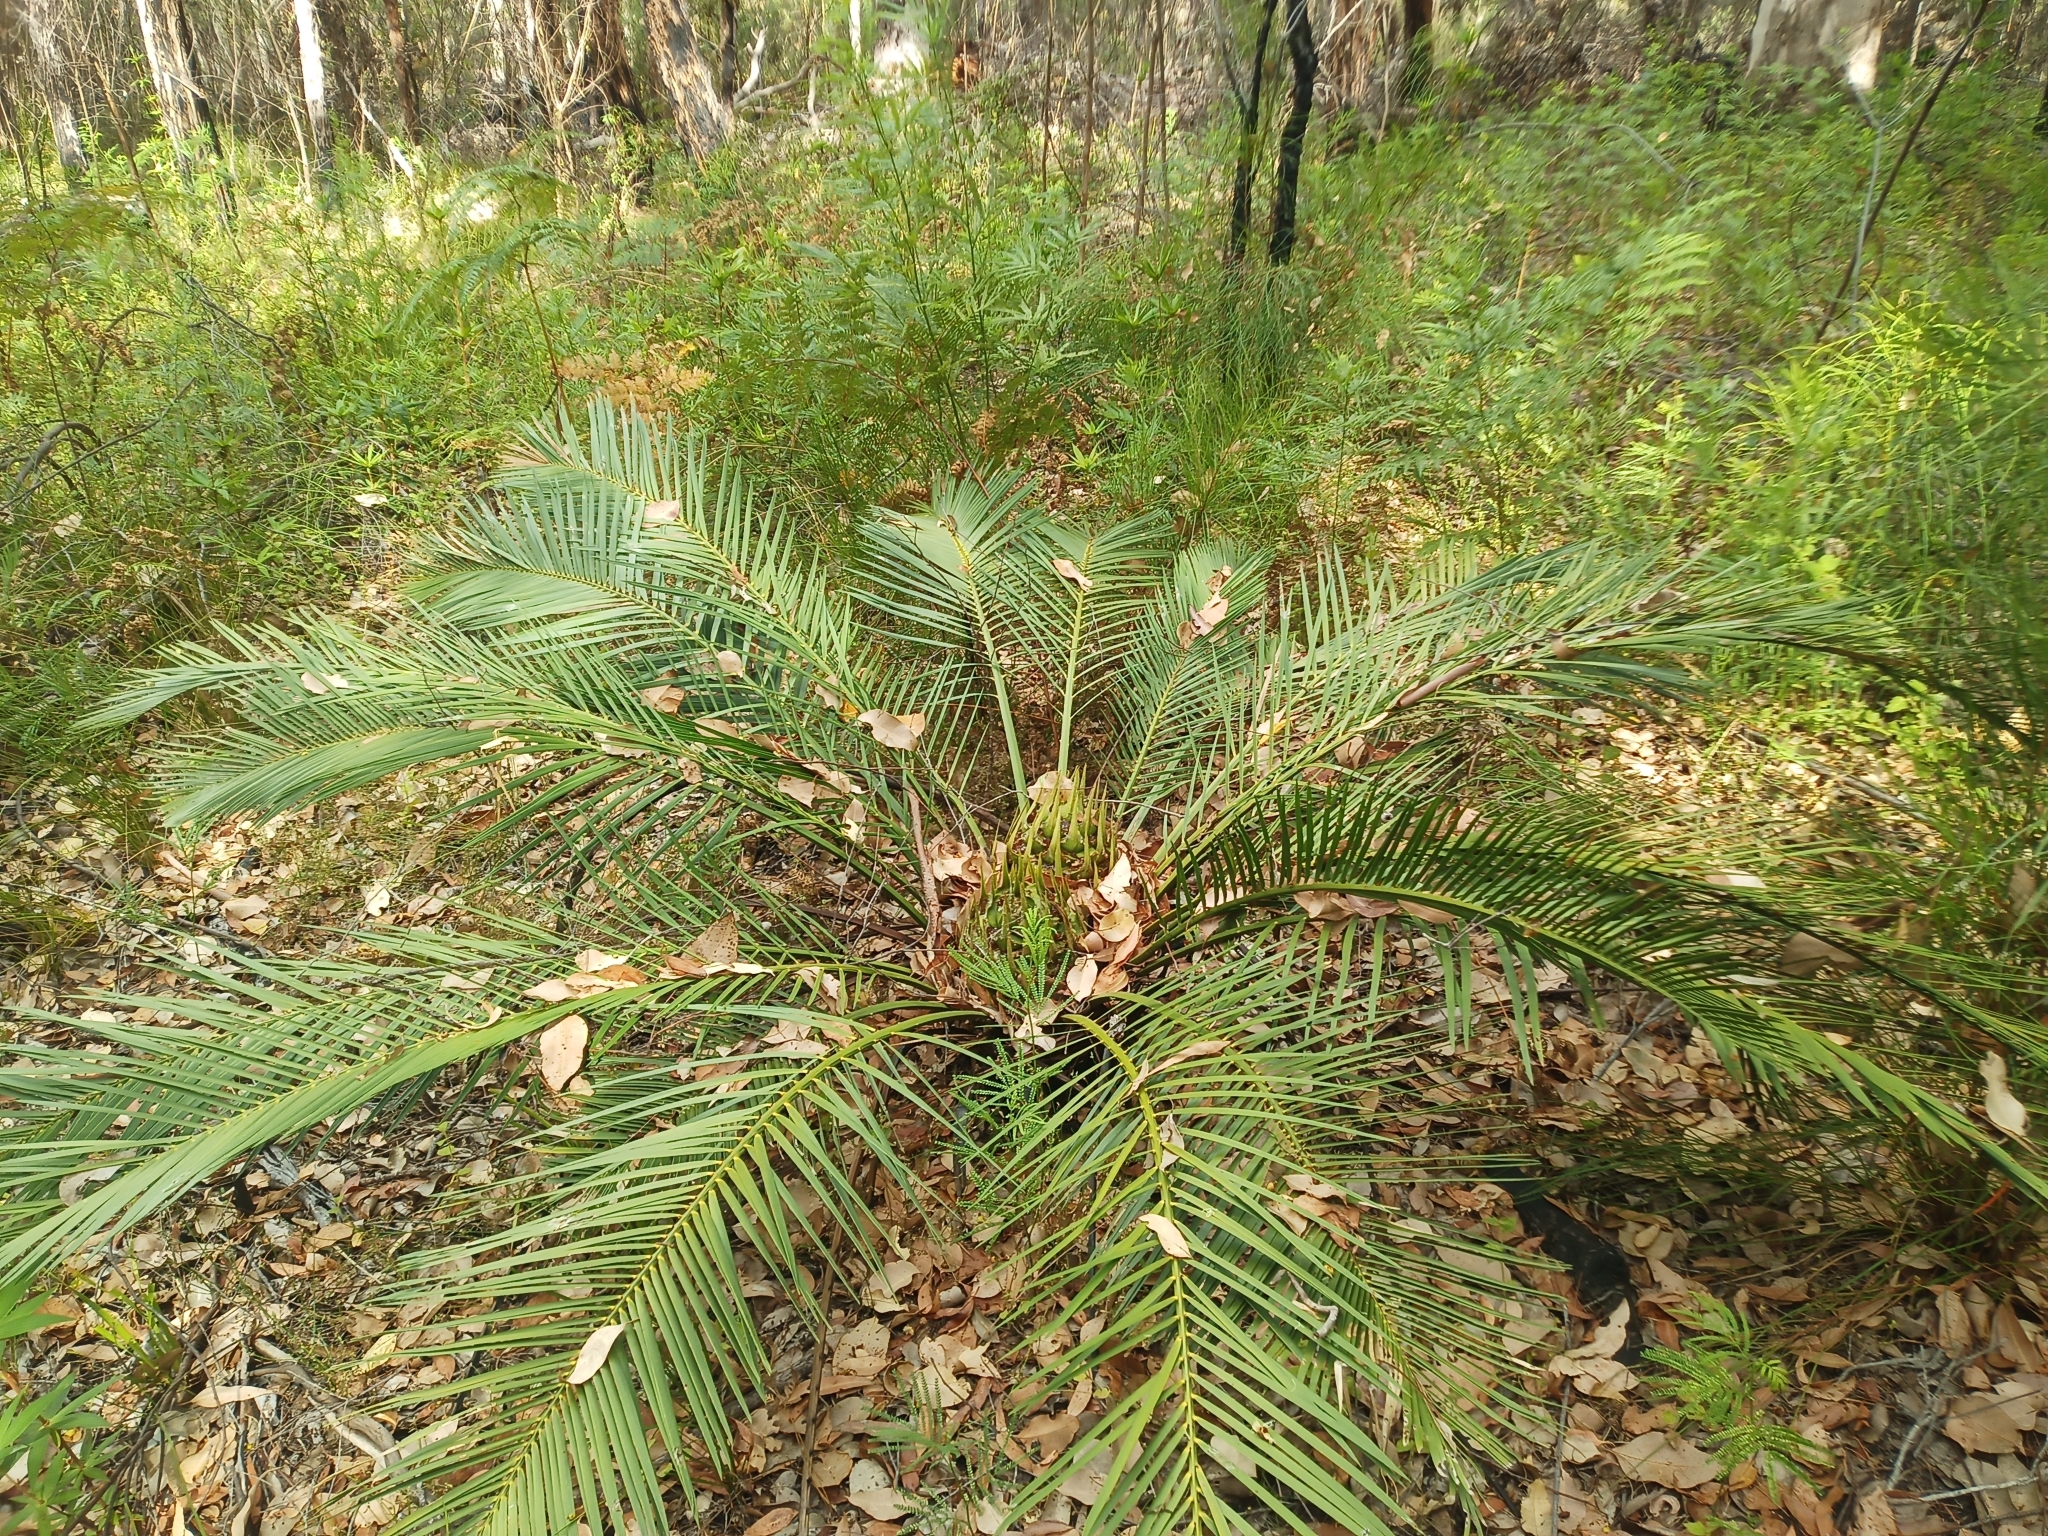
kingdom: Plantae
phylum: Tracheophyta
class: Cycadopsida
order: Cycadales
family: Zamiaceae
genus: Macrozamia
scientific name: Macrozamia riedlei
